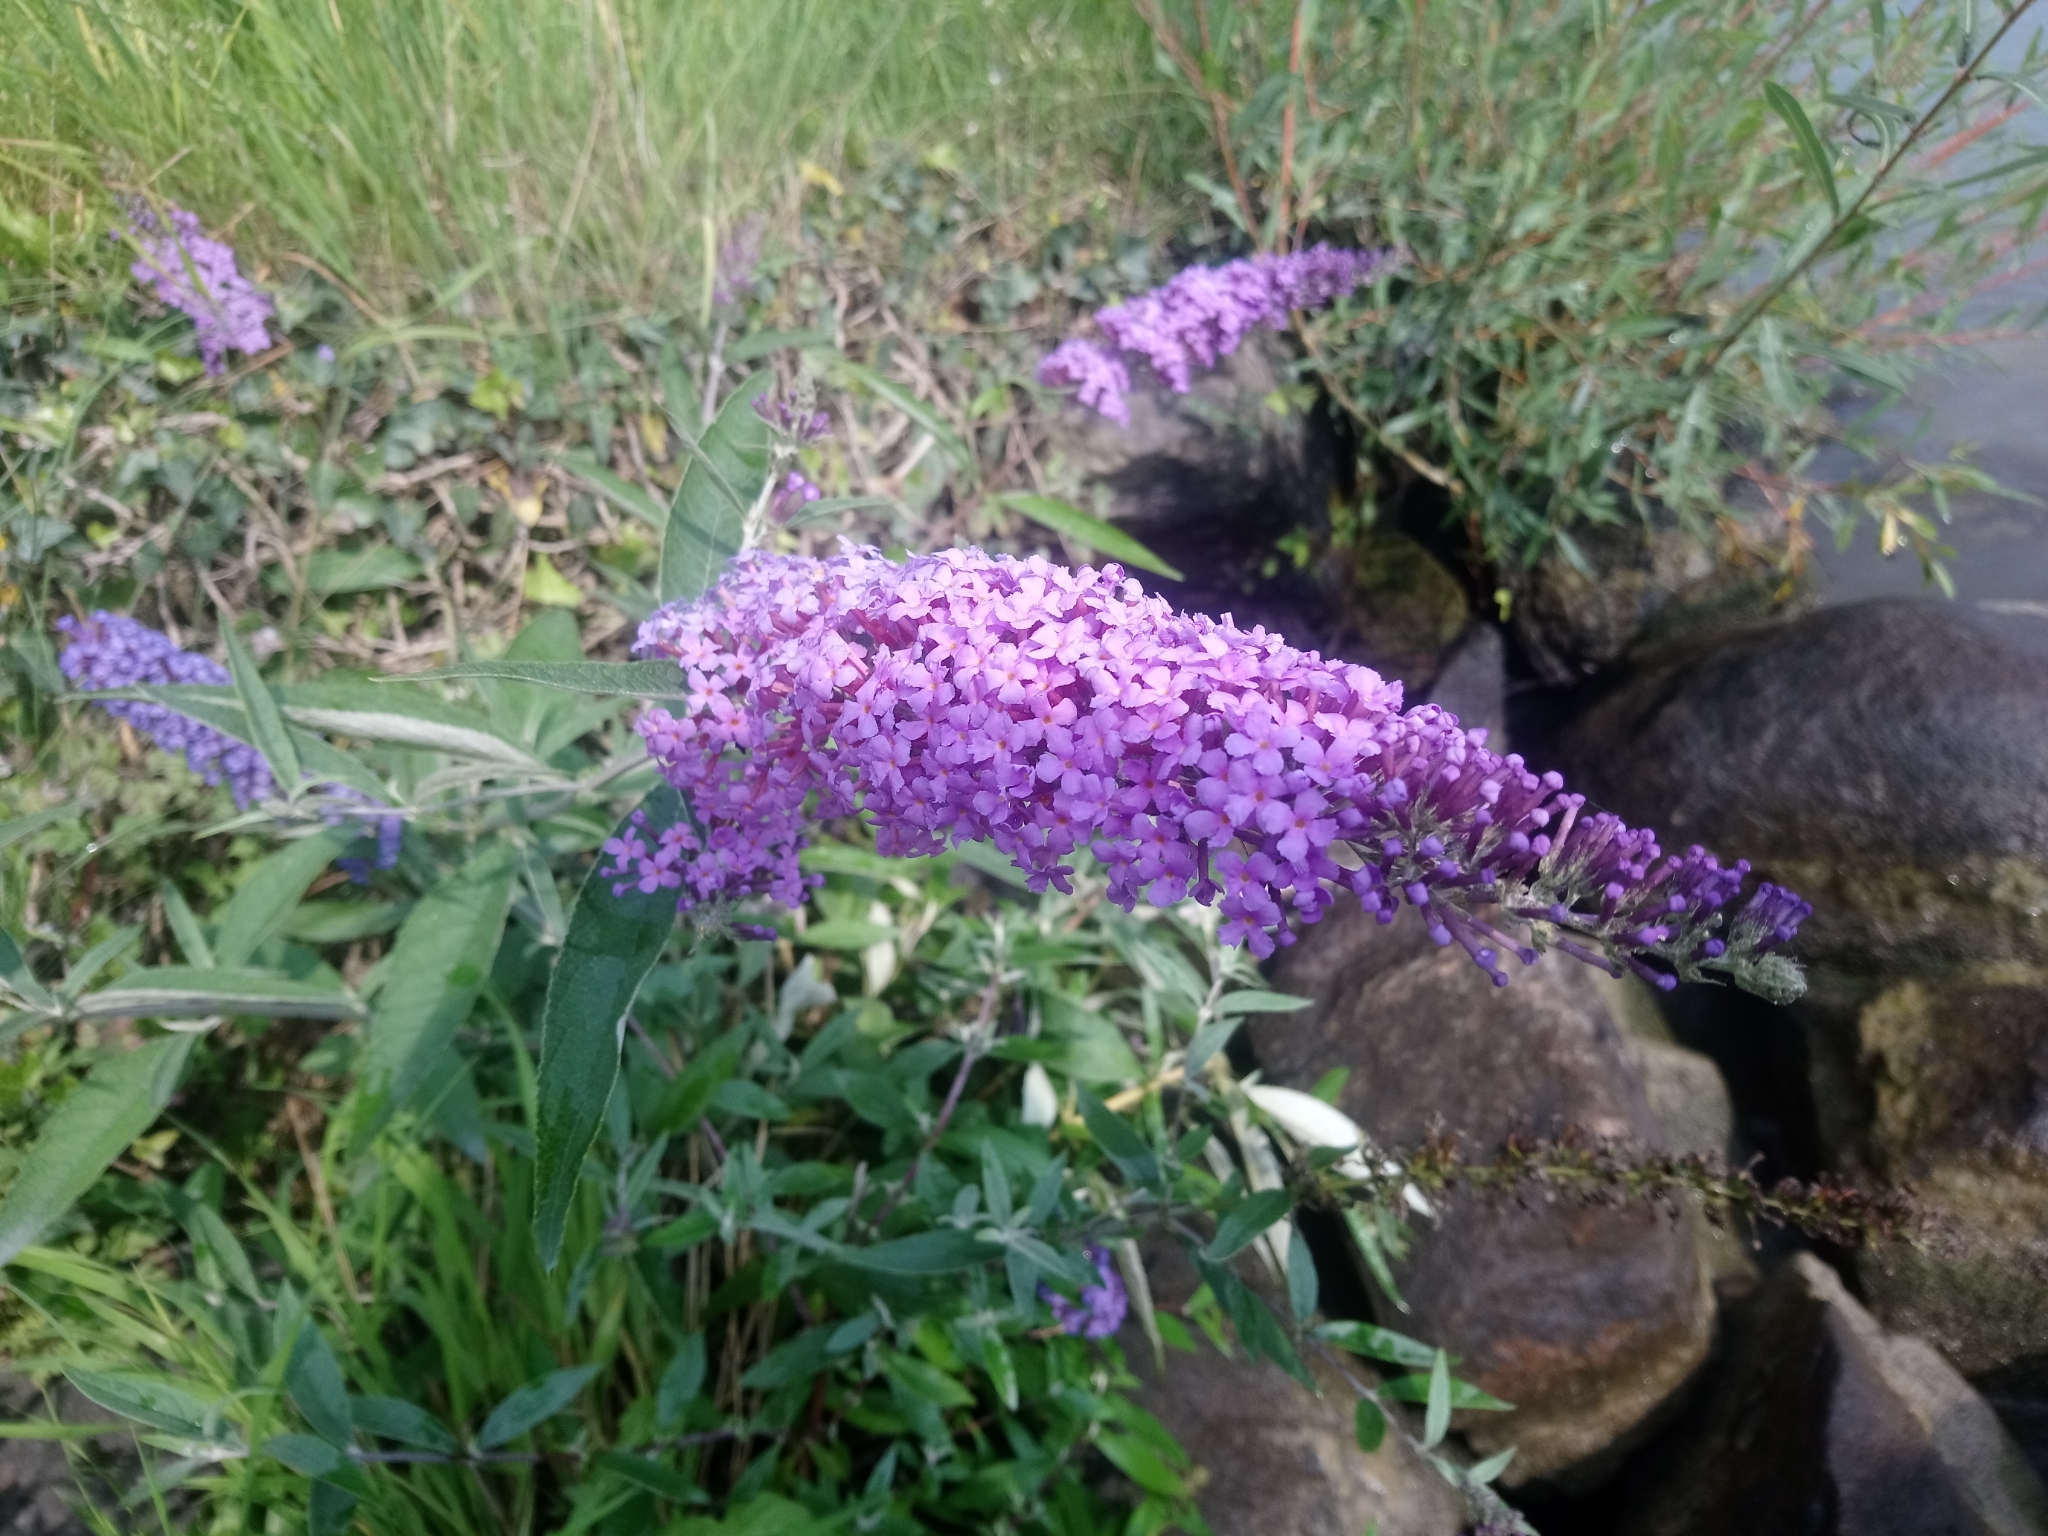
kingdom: Plantae
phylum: Tracheophyta
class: Magnoliopsida
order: Lamiales
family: Scrophulariaceae
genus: Buddleja
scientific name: Buddleja davidii
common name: Butterfly-bush
